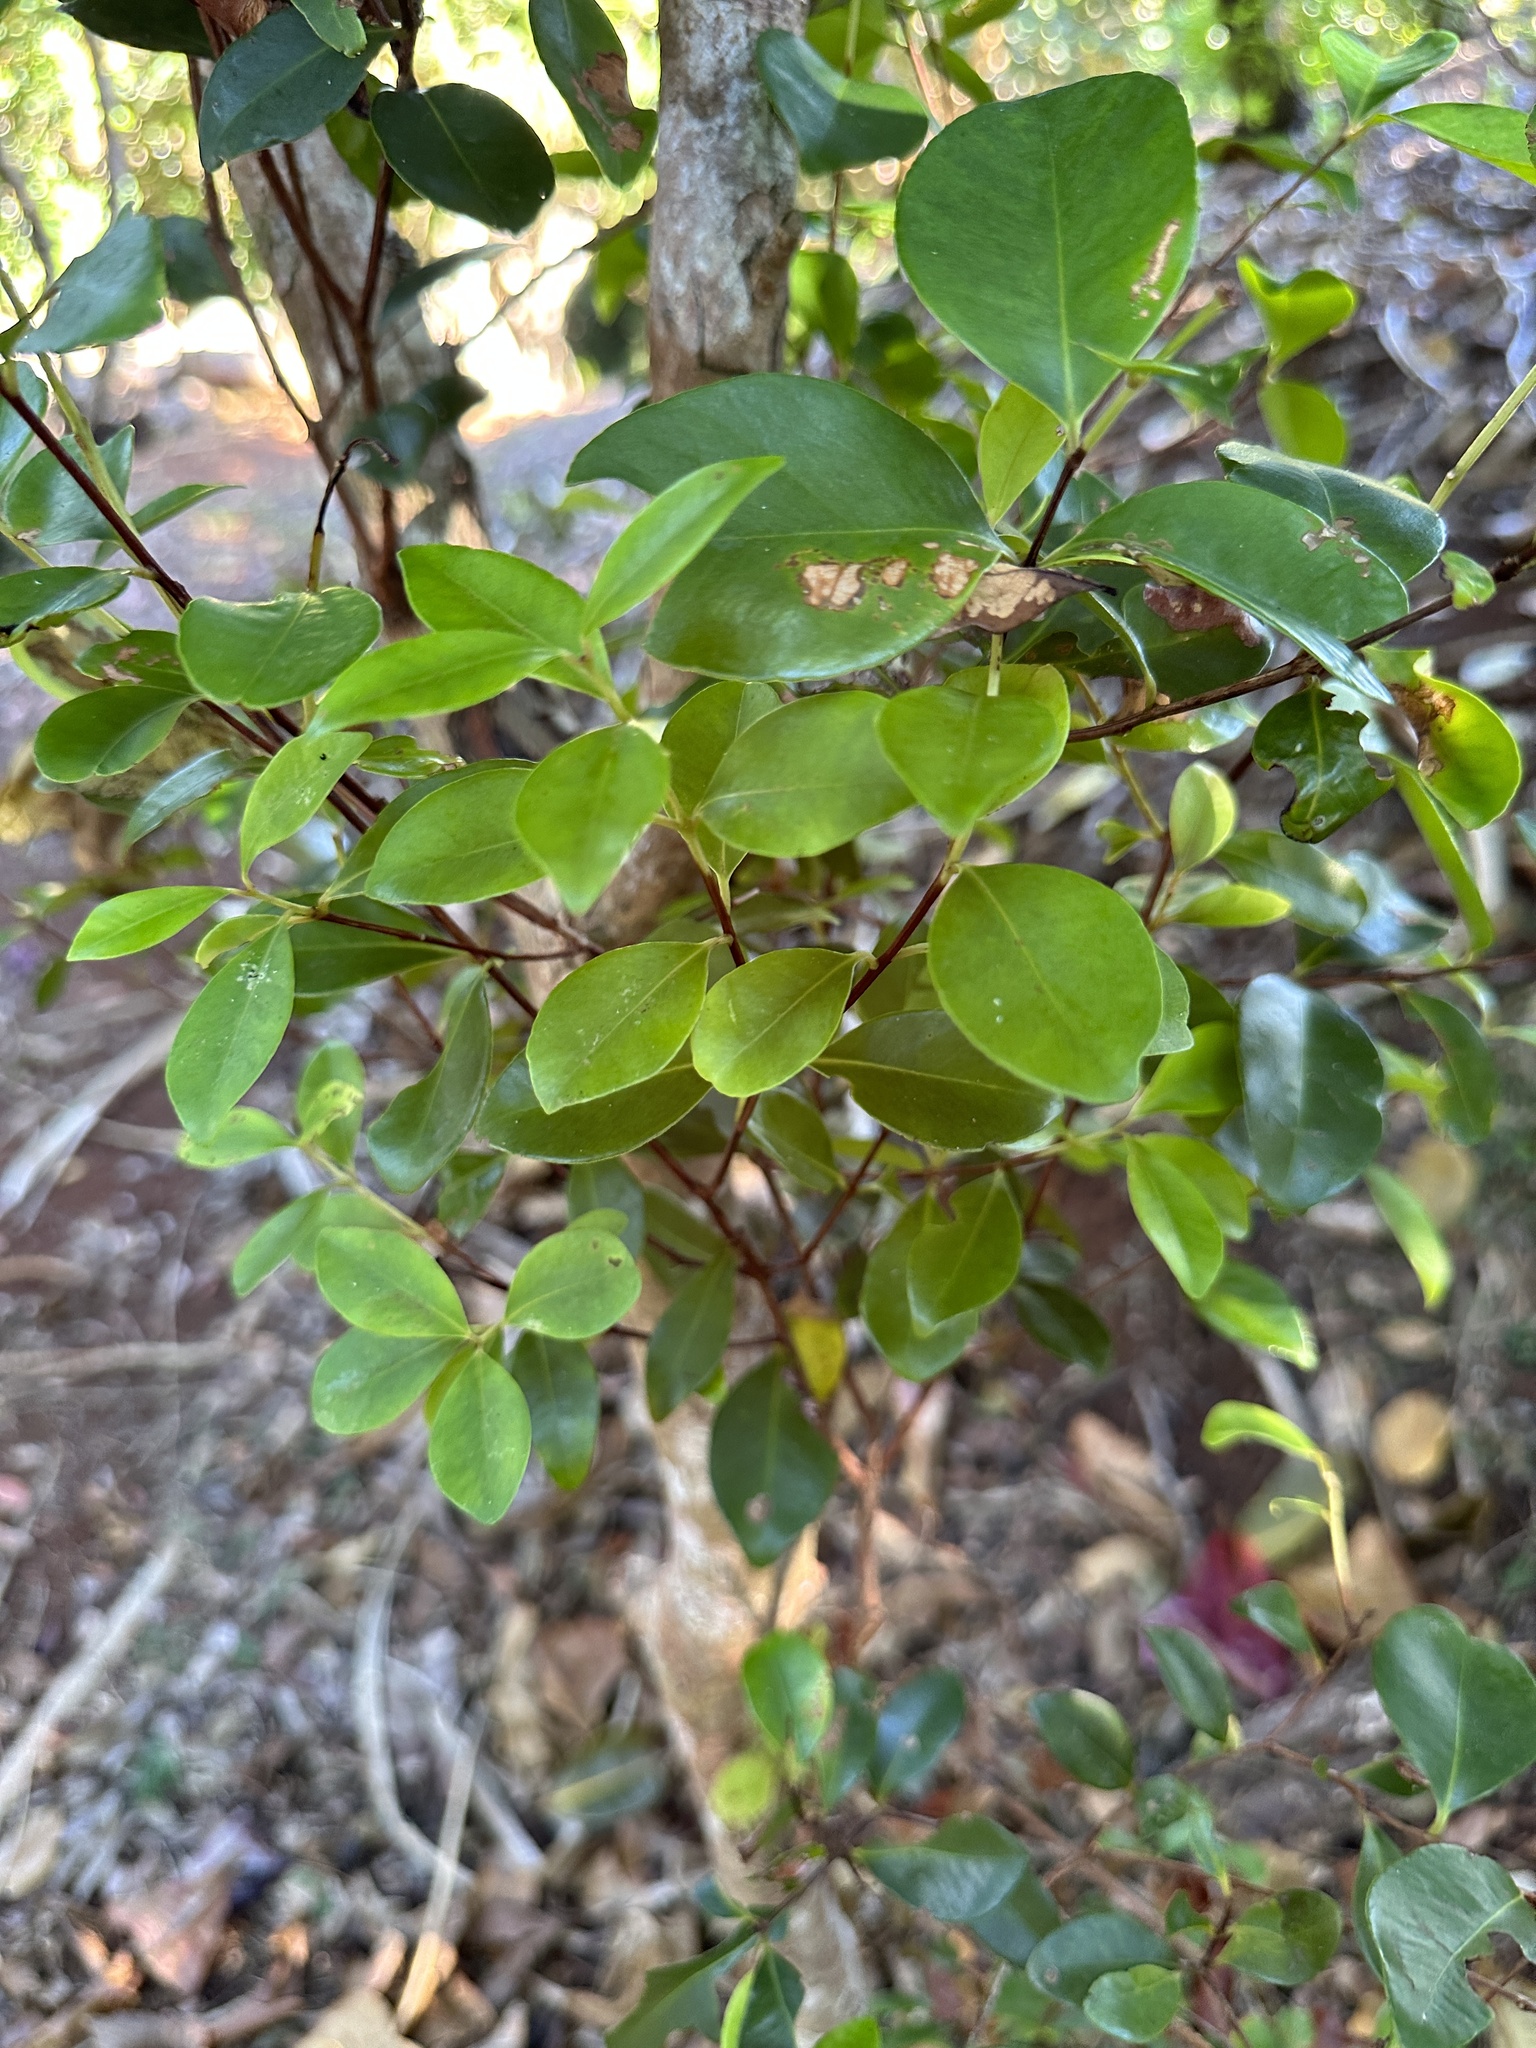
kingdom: Plantae
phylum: Tracheophyta
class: Magnoliopsida
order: Myrtales
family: Myrtaceae
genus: Syzygium
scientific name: Syzygium cleyerifolium
